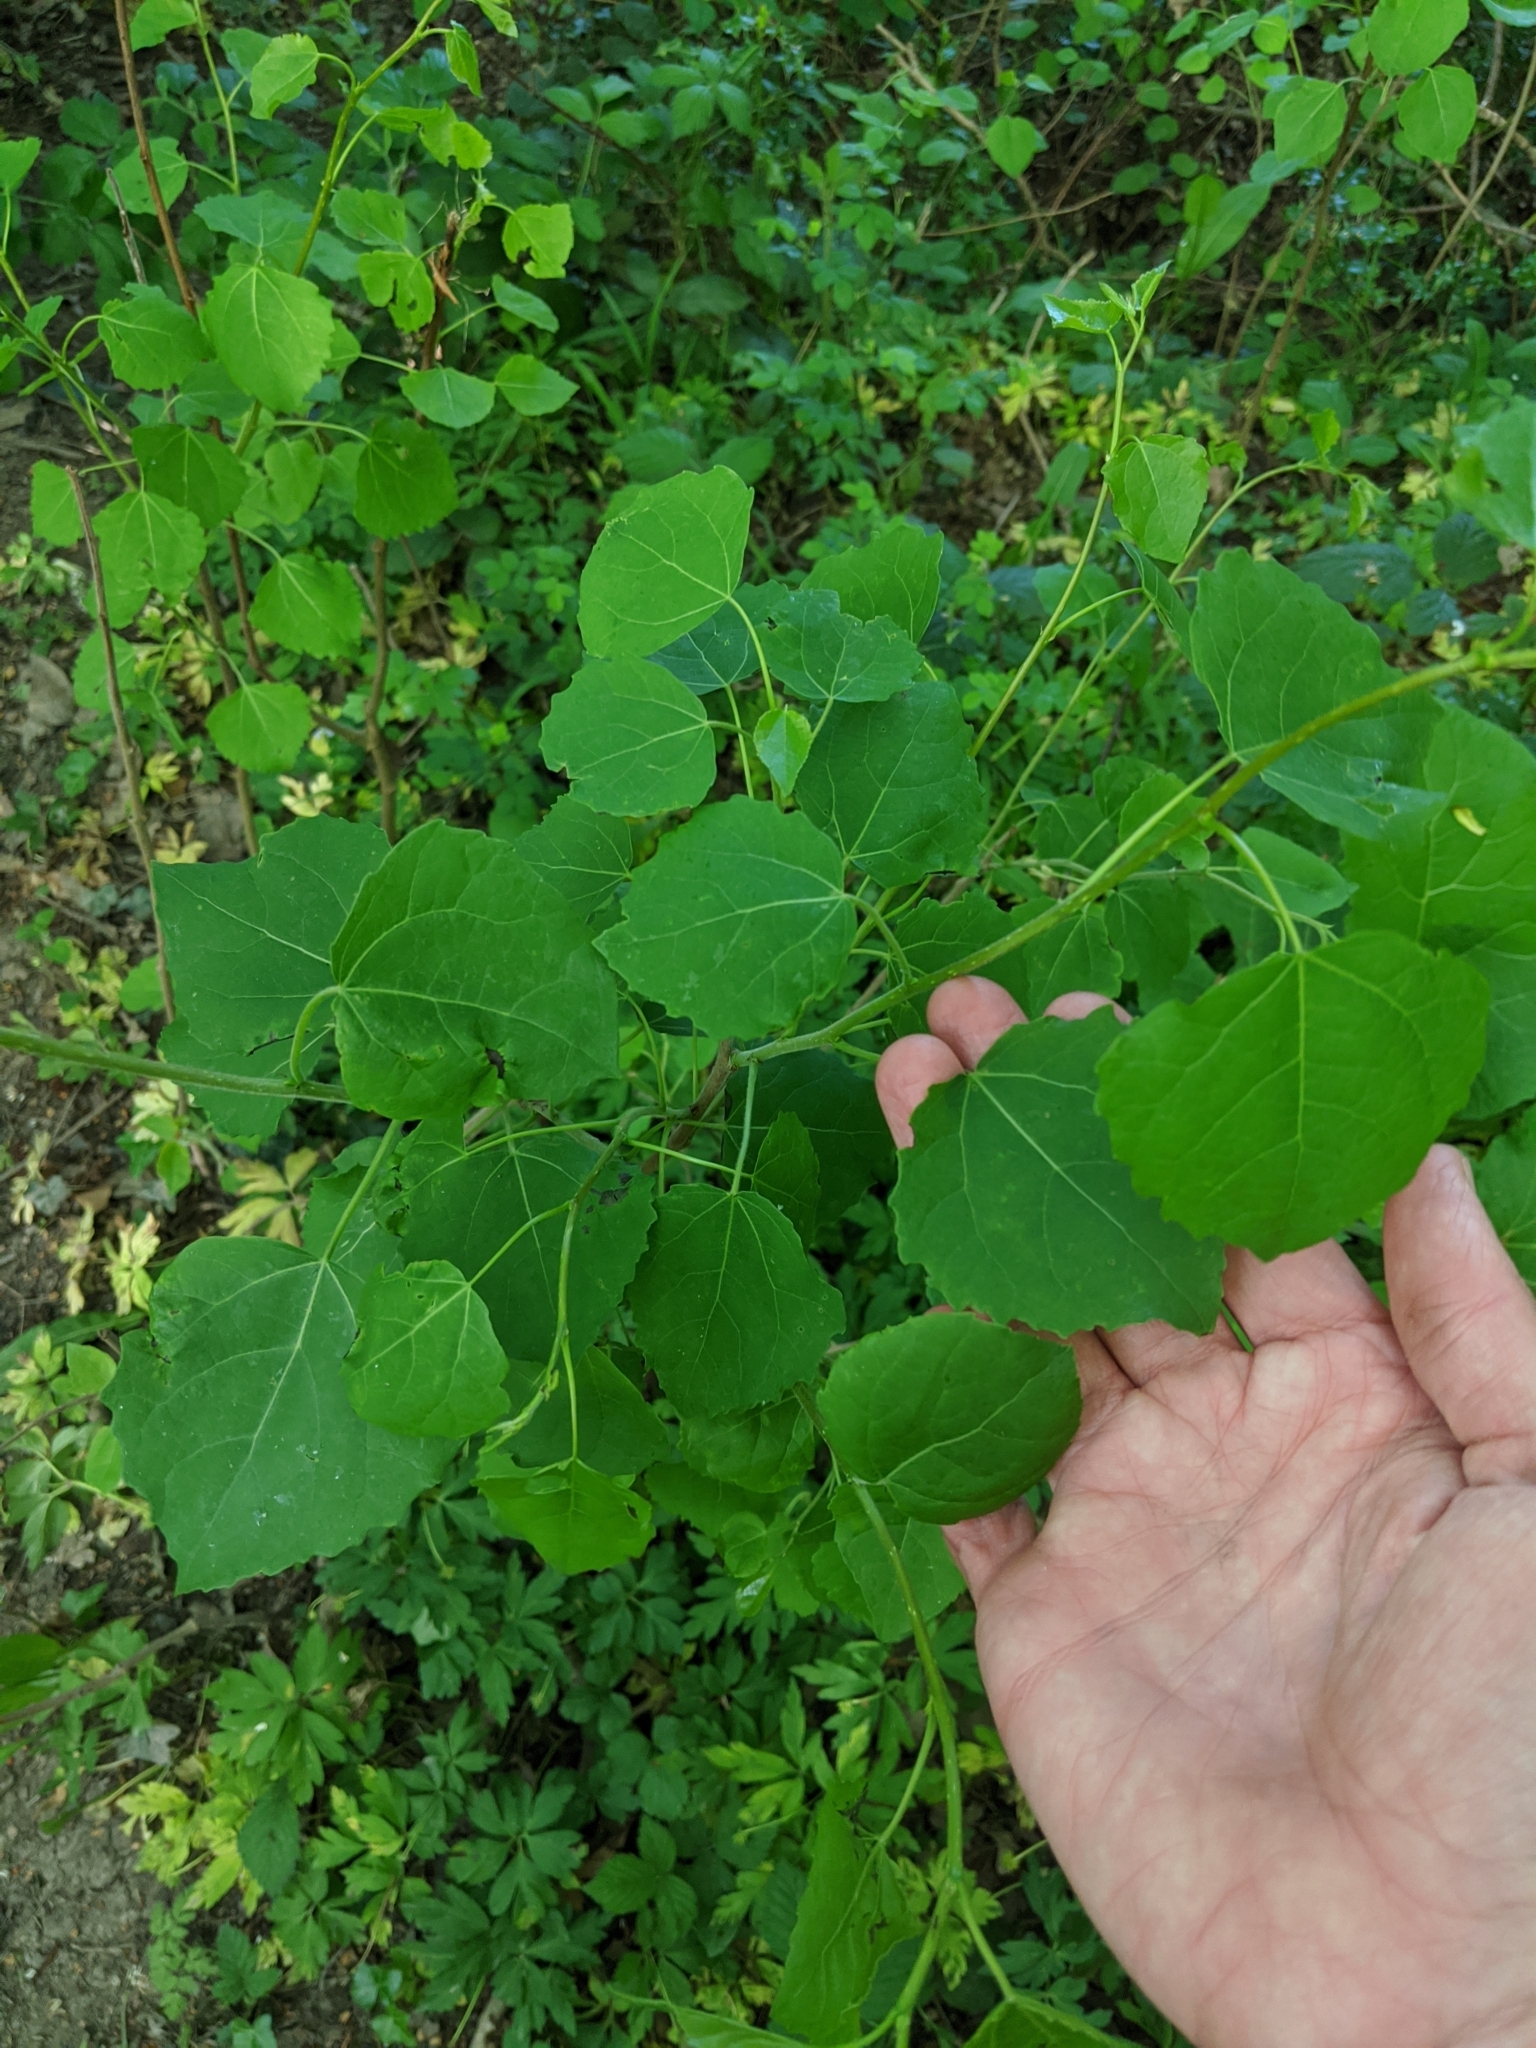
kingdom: Plantae
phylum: Tracheophyta
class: Magnoliopsida
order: Malpighiales
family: Salicaceae
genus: Populus
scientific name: Populus tremula
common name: European aspen
